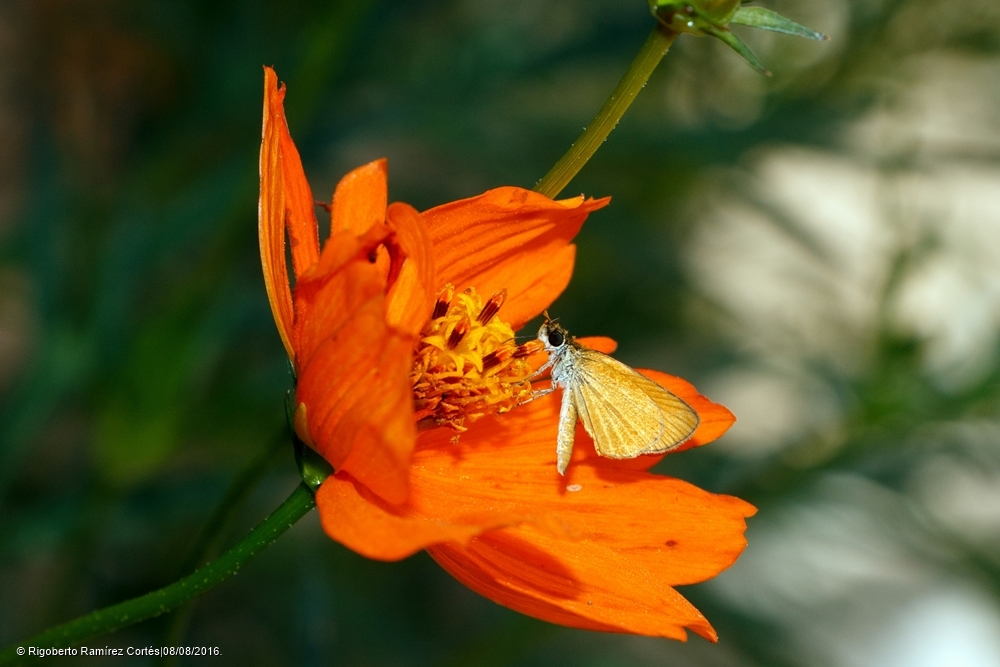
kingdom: Animalia
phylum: Arthropoda
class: Insecta
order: Lepidoptera
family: Hesperiidae
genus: Ancyloxypha
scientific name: Ancyloxypha arene
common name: Tropical least skipper
